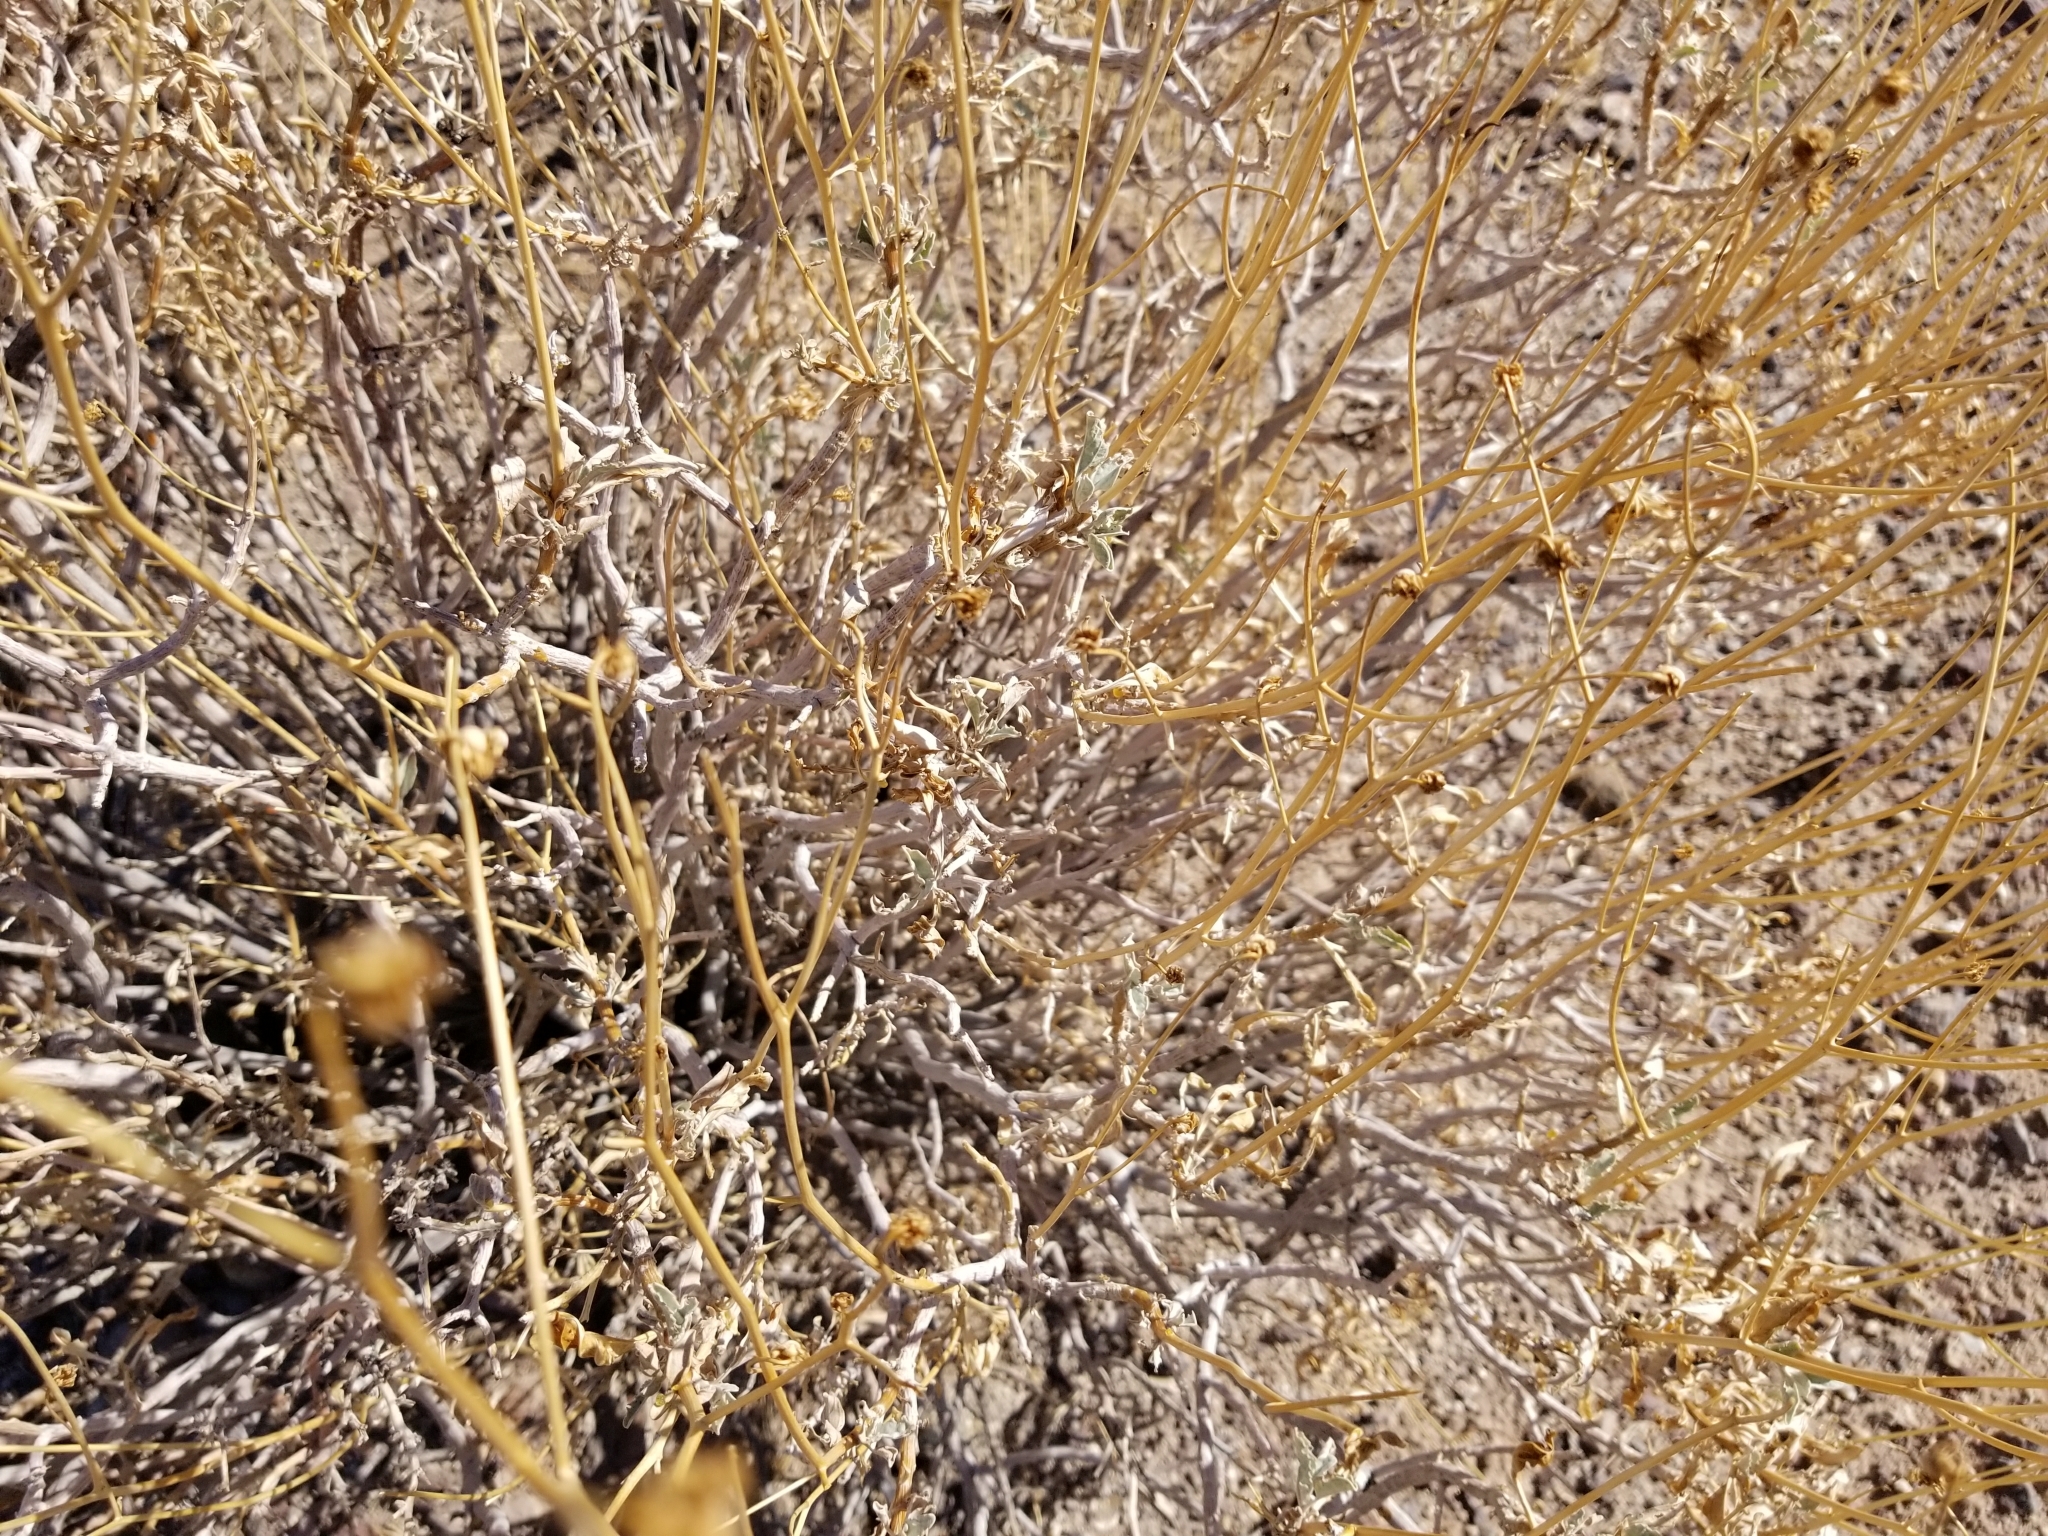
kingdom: Plantae
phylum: Tracheophyta
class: Magnoliopsida
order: Asterales
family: Asteraceae
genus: Encelia
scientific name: Encelia farinosa
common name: Brittlebush
